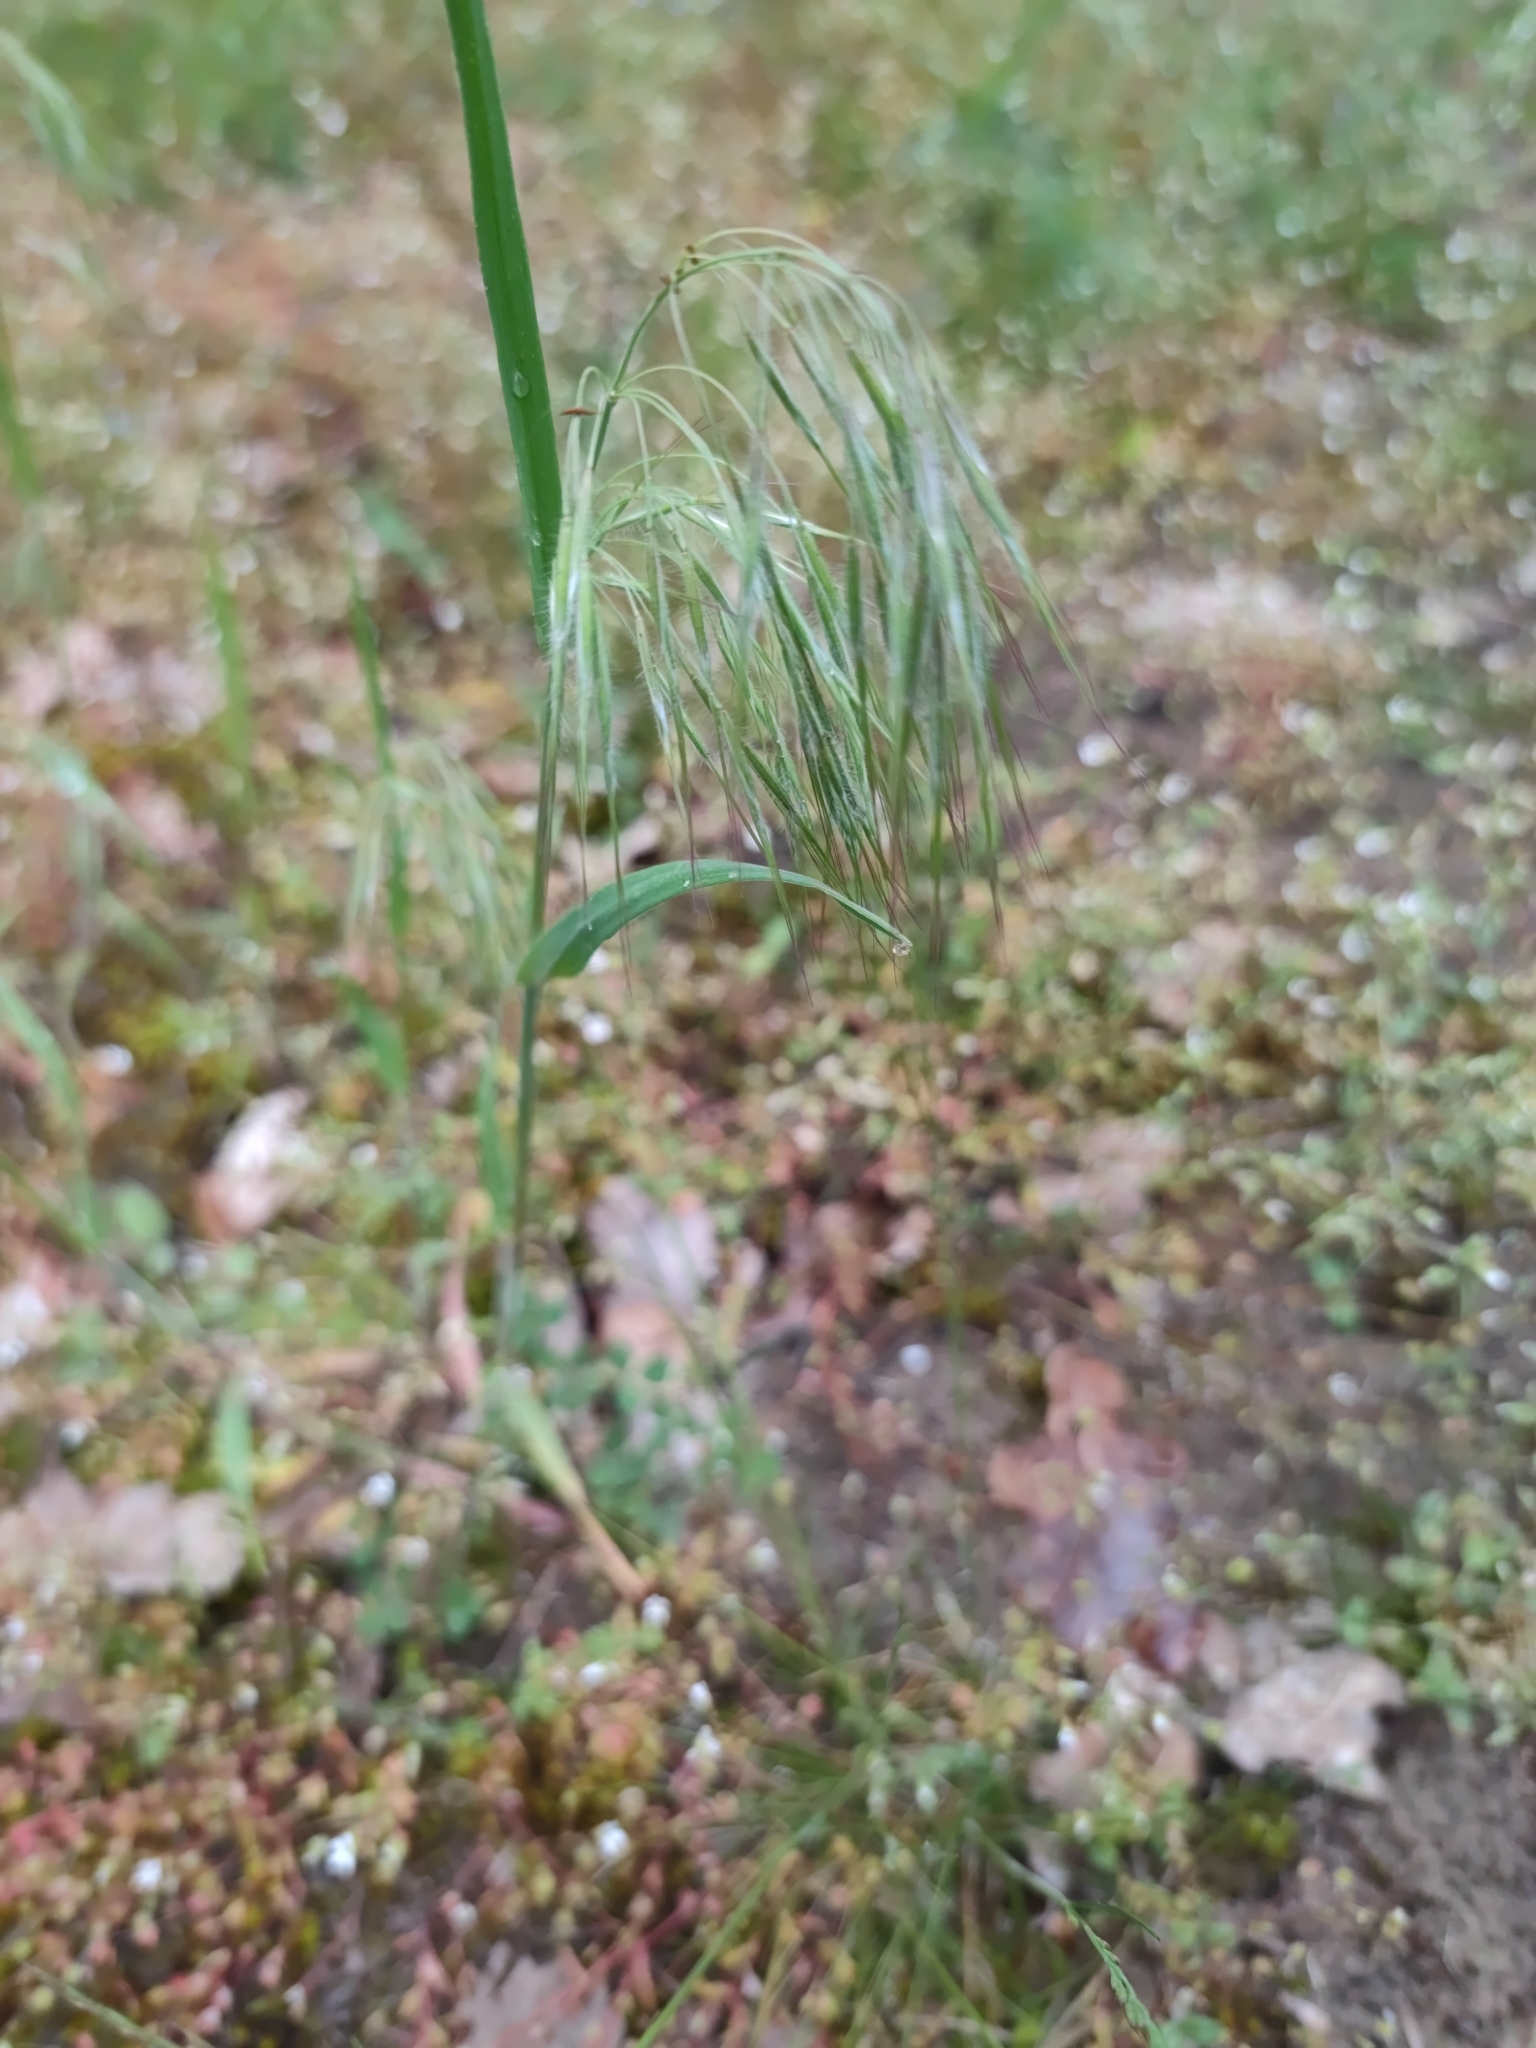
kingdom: Plantae
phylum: Tracheophyta
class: Liliopsida
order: Poales
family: Poaceae
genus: Bromus
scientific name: Bromus tectorum
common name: Cheatgrass
